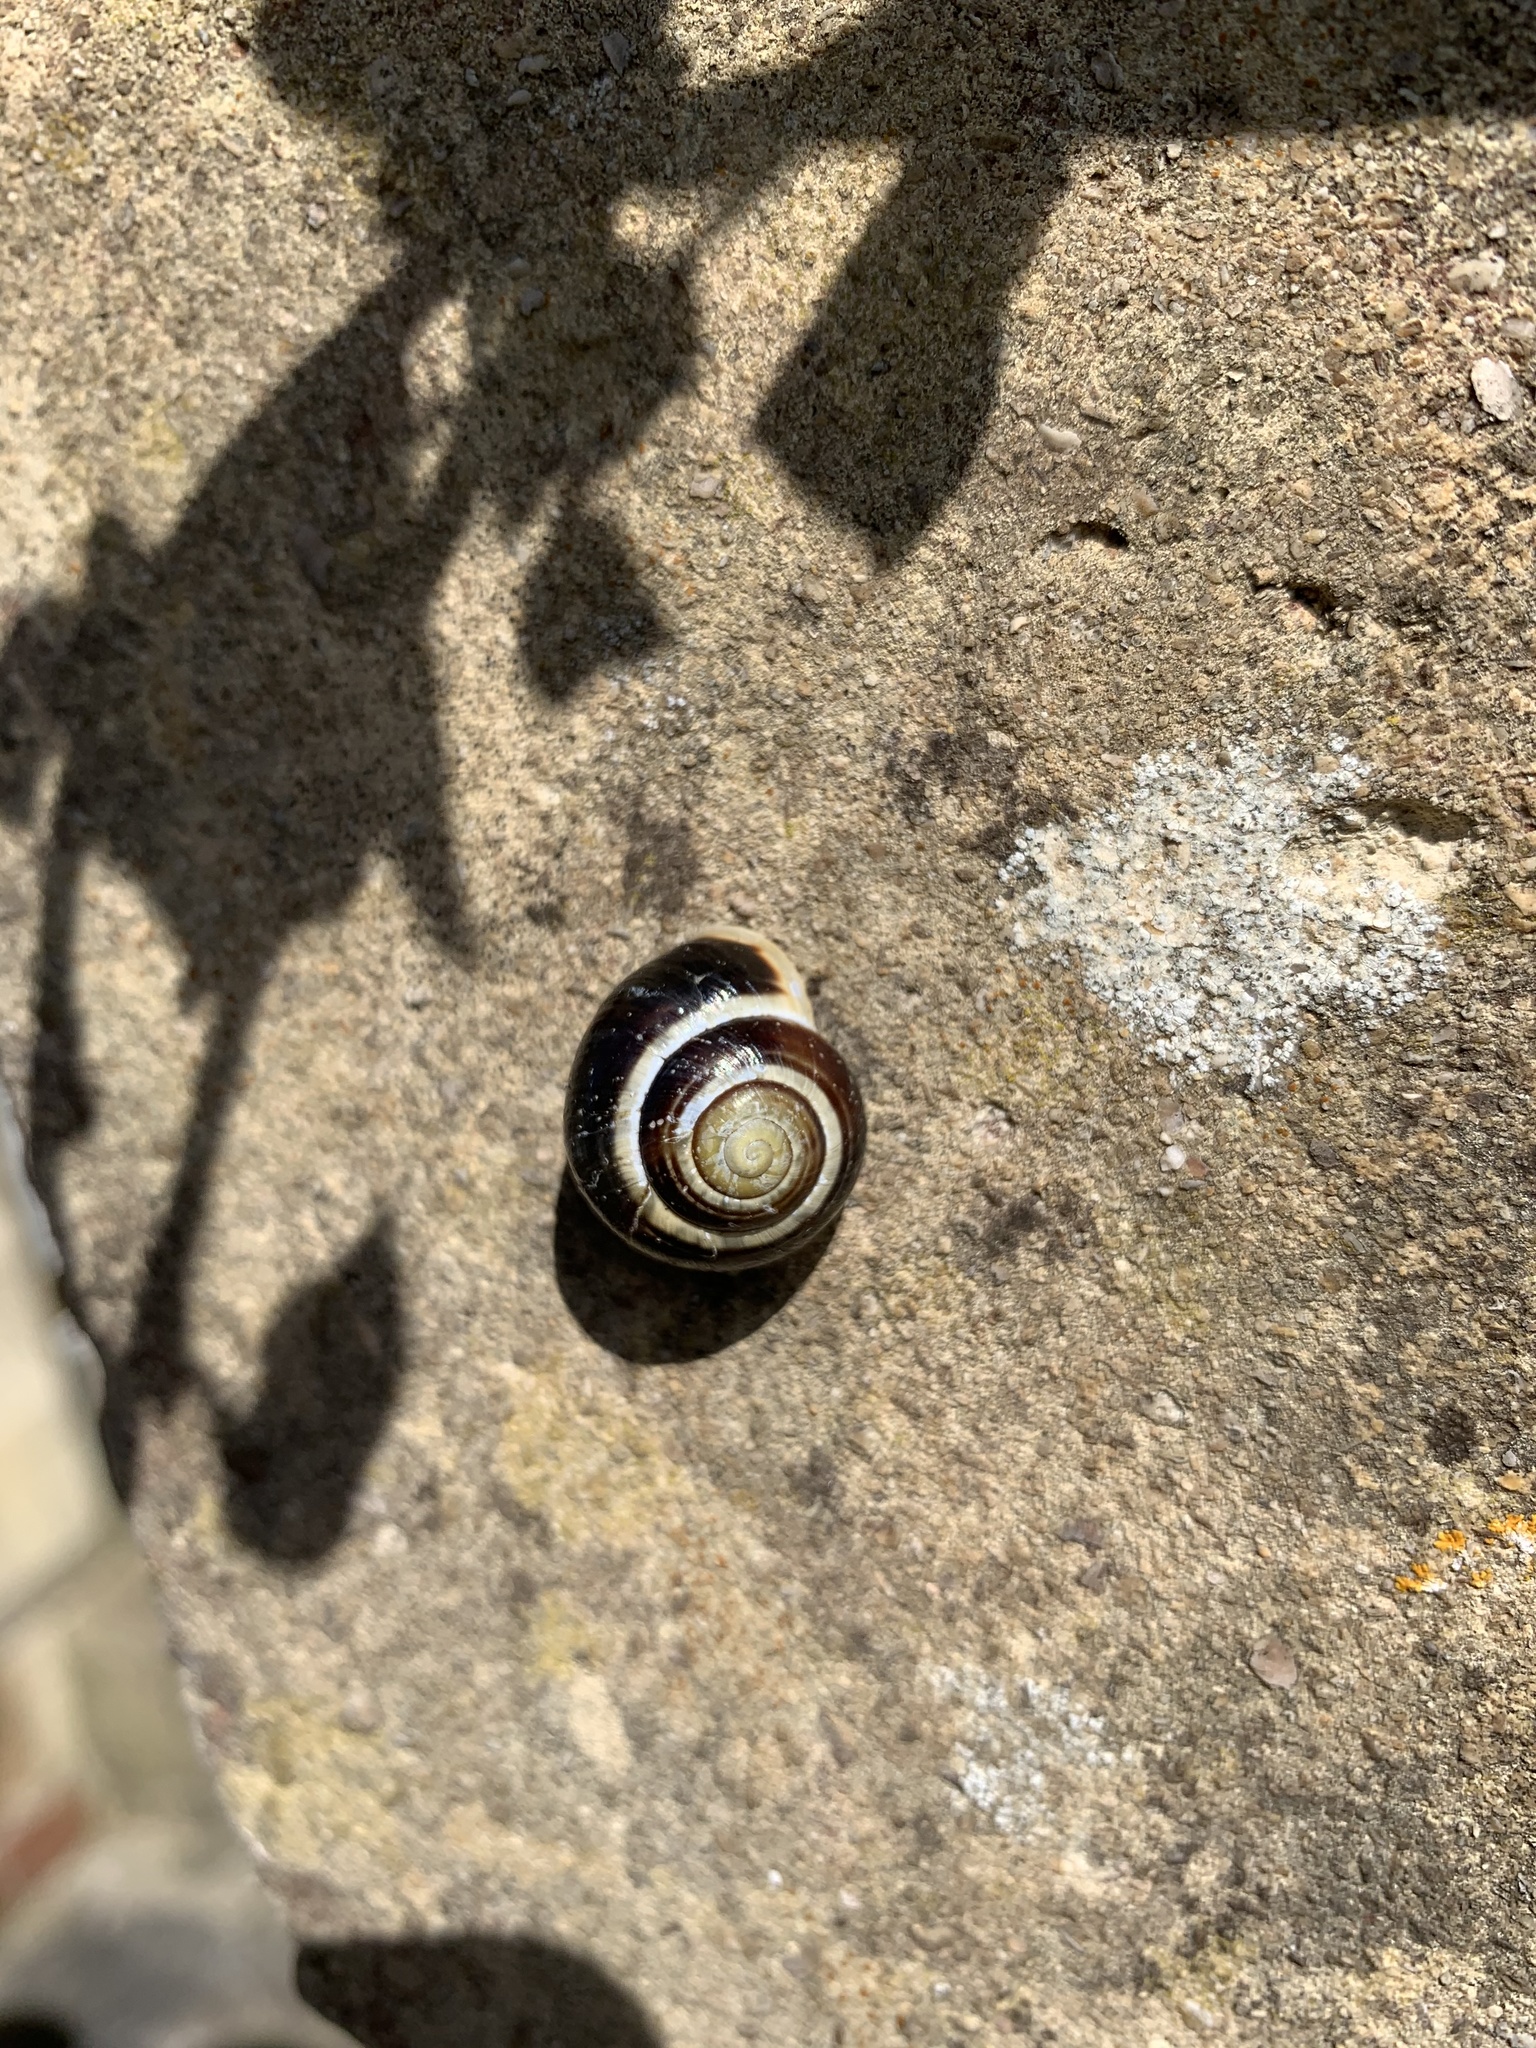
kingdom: Animalia
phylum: Mollusca
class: Gastropoda
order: Stylommatophora
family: Helicidae
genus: Cepaea
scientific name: Cepaea hortensis
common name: White-lip gardensnail
